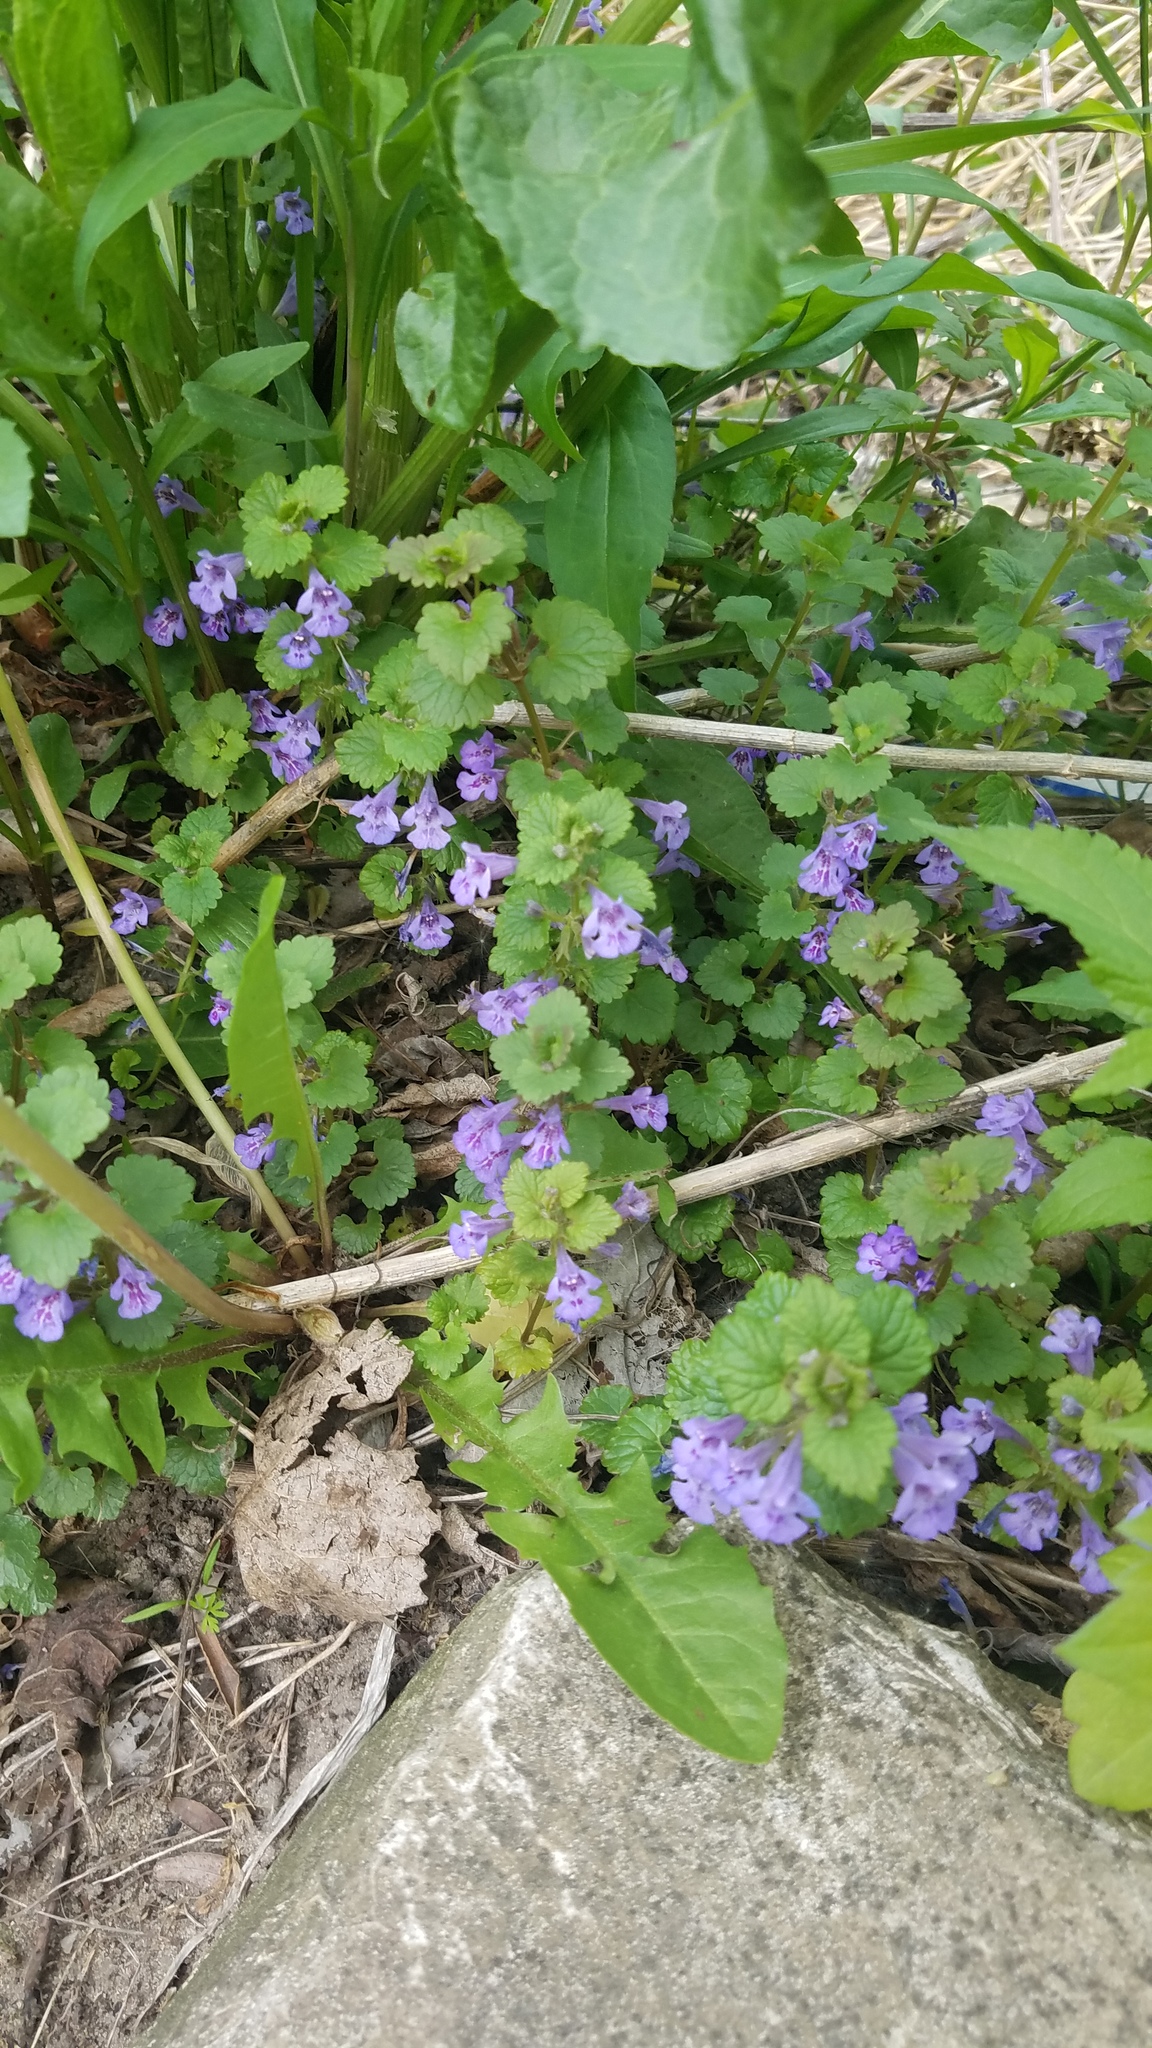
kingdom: Plantae
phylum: Tracheophyta
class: Magnoliopsida
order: Lamiales
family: Lamiaceae
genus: Glechoma
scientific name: Glechoma hederacea
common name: Ground ivy
